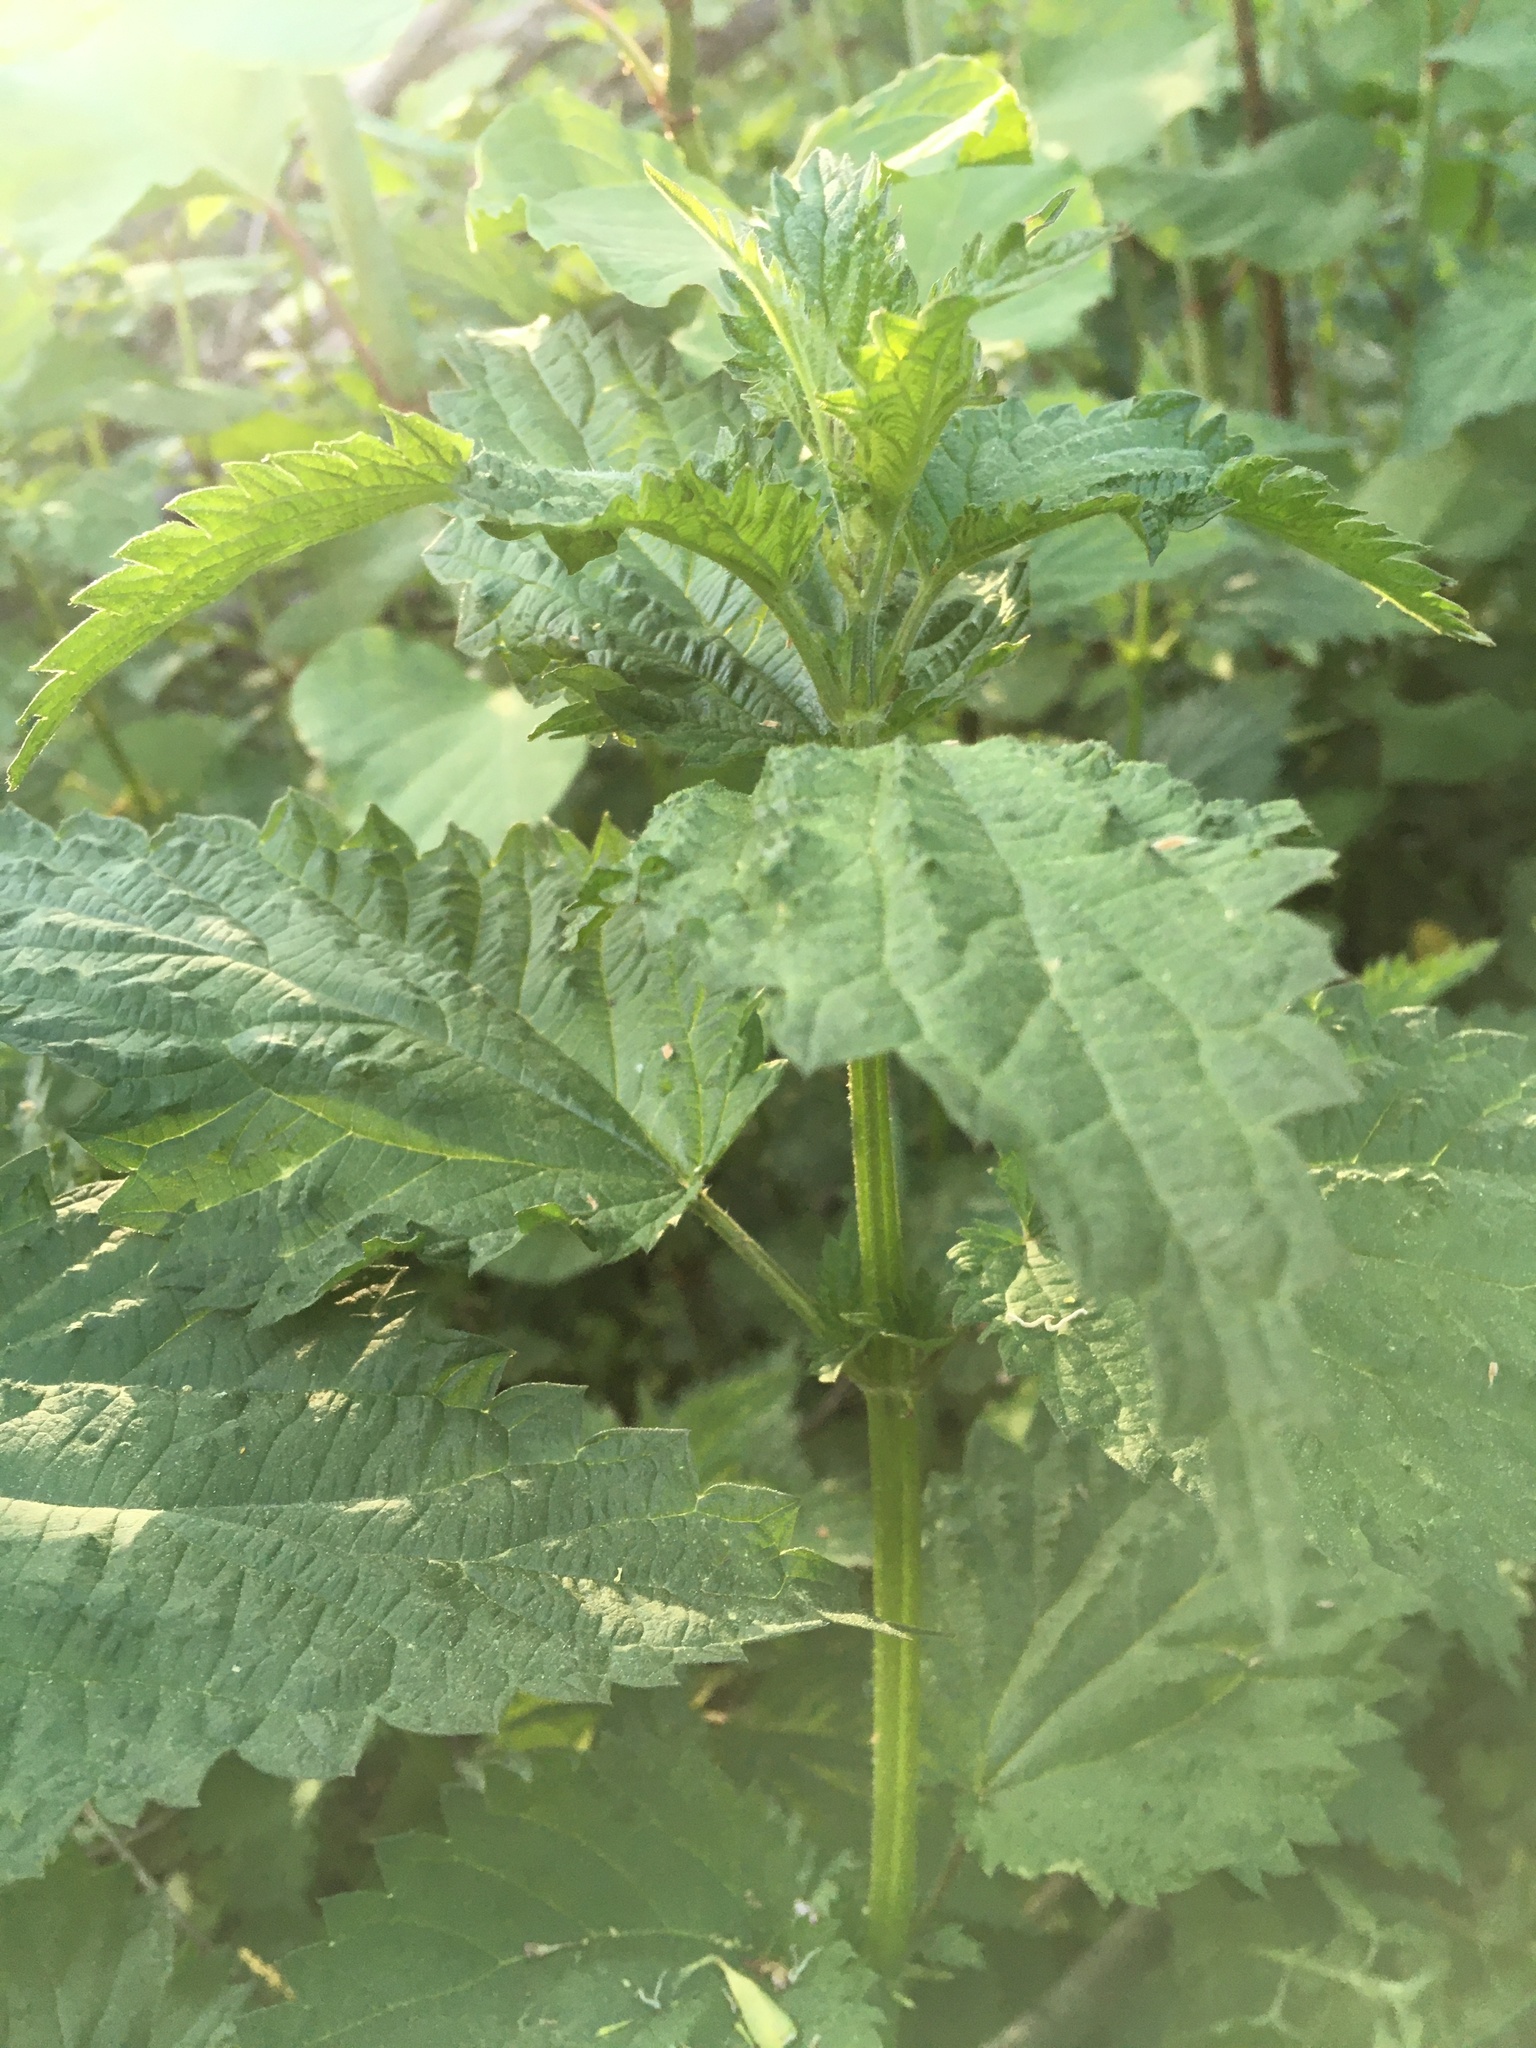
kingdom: Plantae
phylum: Tracheophyta
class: Magnoliopsida
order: Rosales
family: Urticaceae
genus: Urtica
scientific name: Urtica dioica
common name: Common nettle
